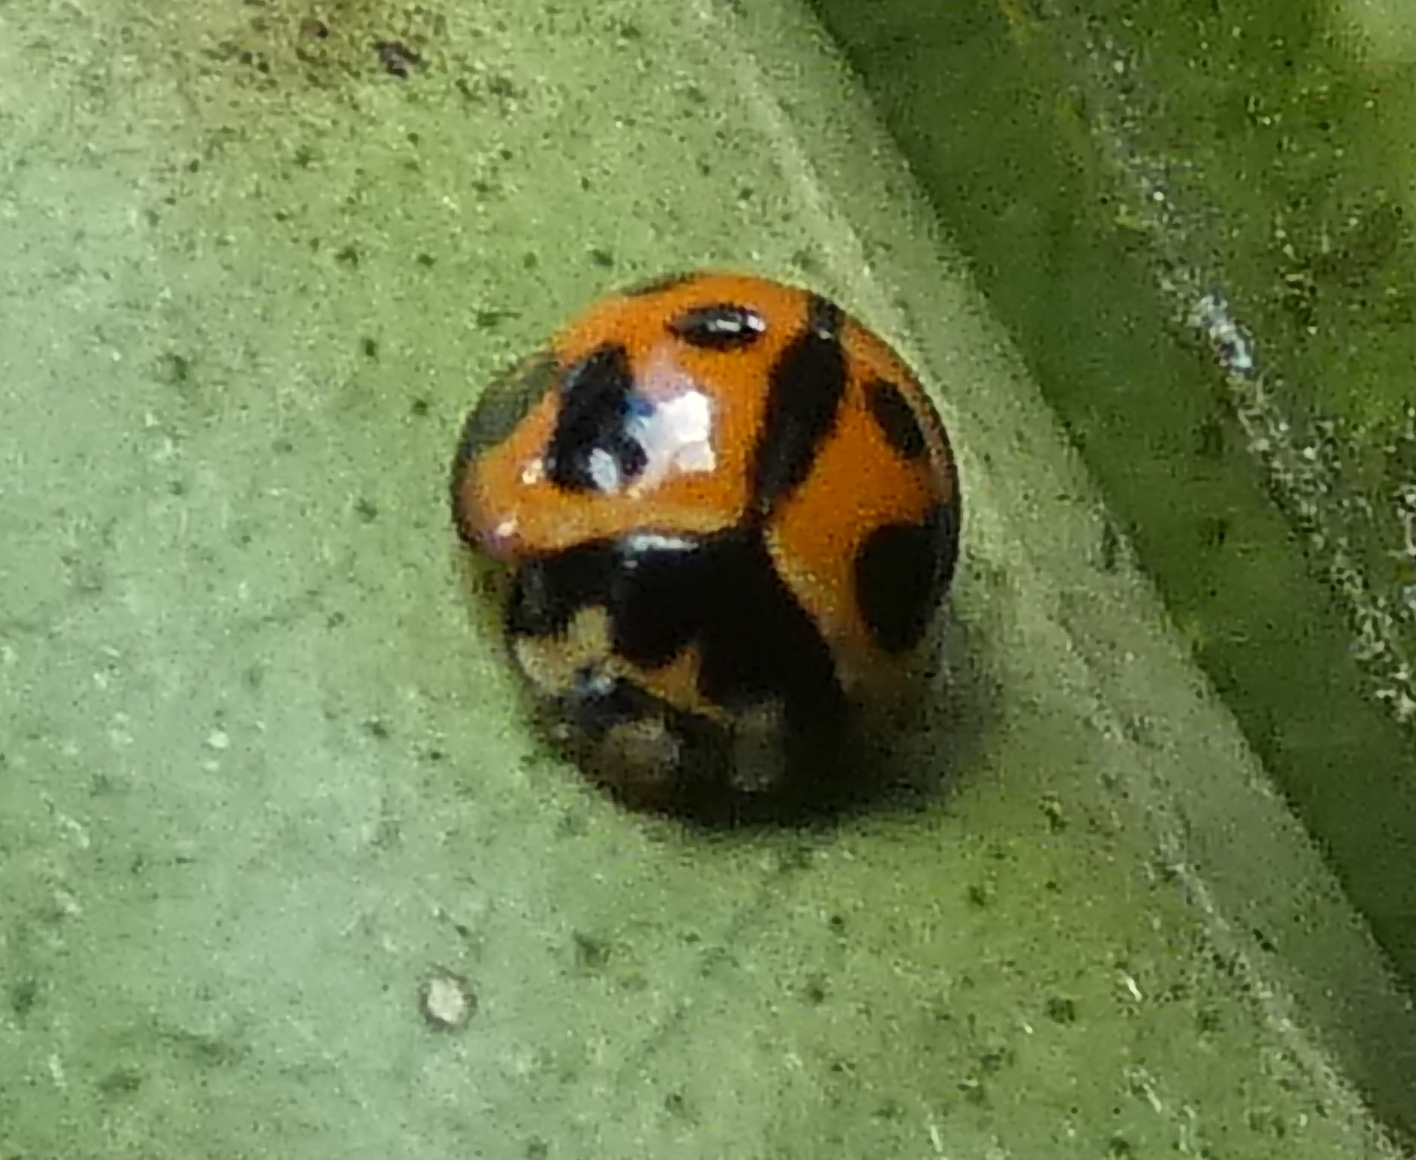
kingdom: Animalia
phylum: Arthropoda
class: Insecta
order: Coleoptera
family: Coccinellidae
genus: Coelophora
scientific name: Coelophora inaequalis
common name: Common australian lady beetle
